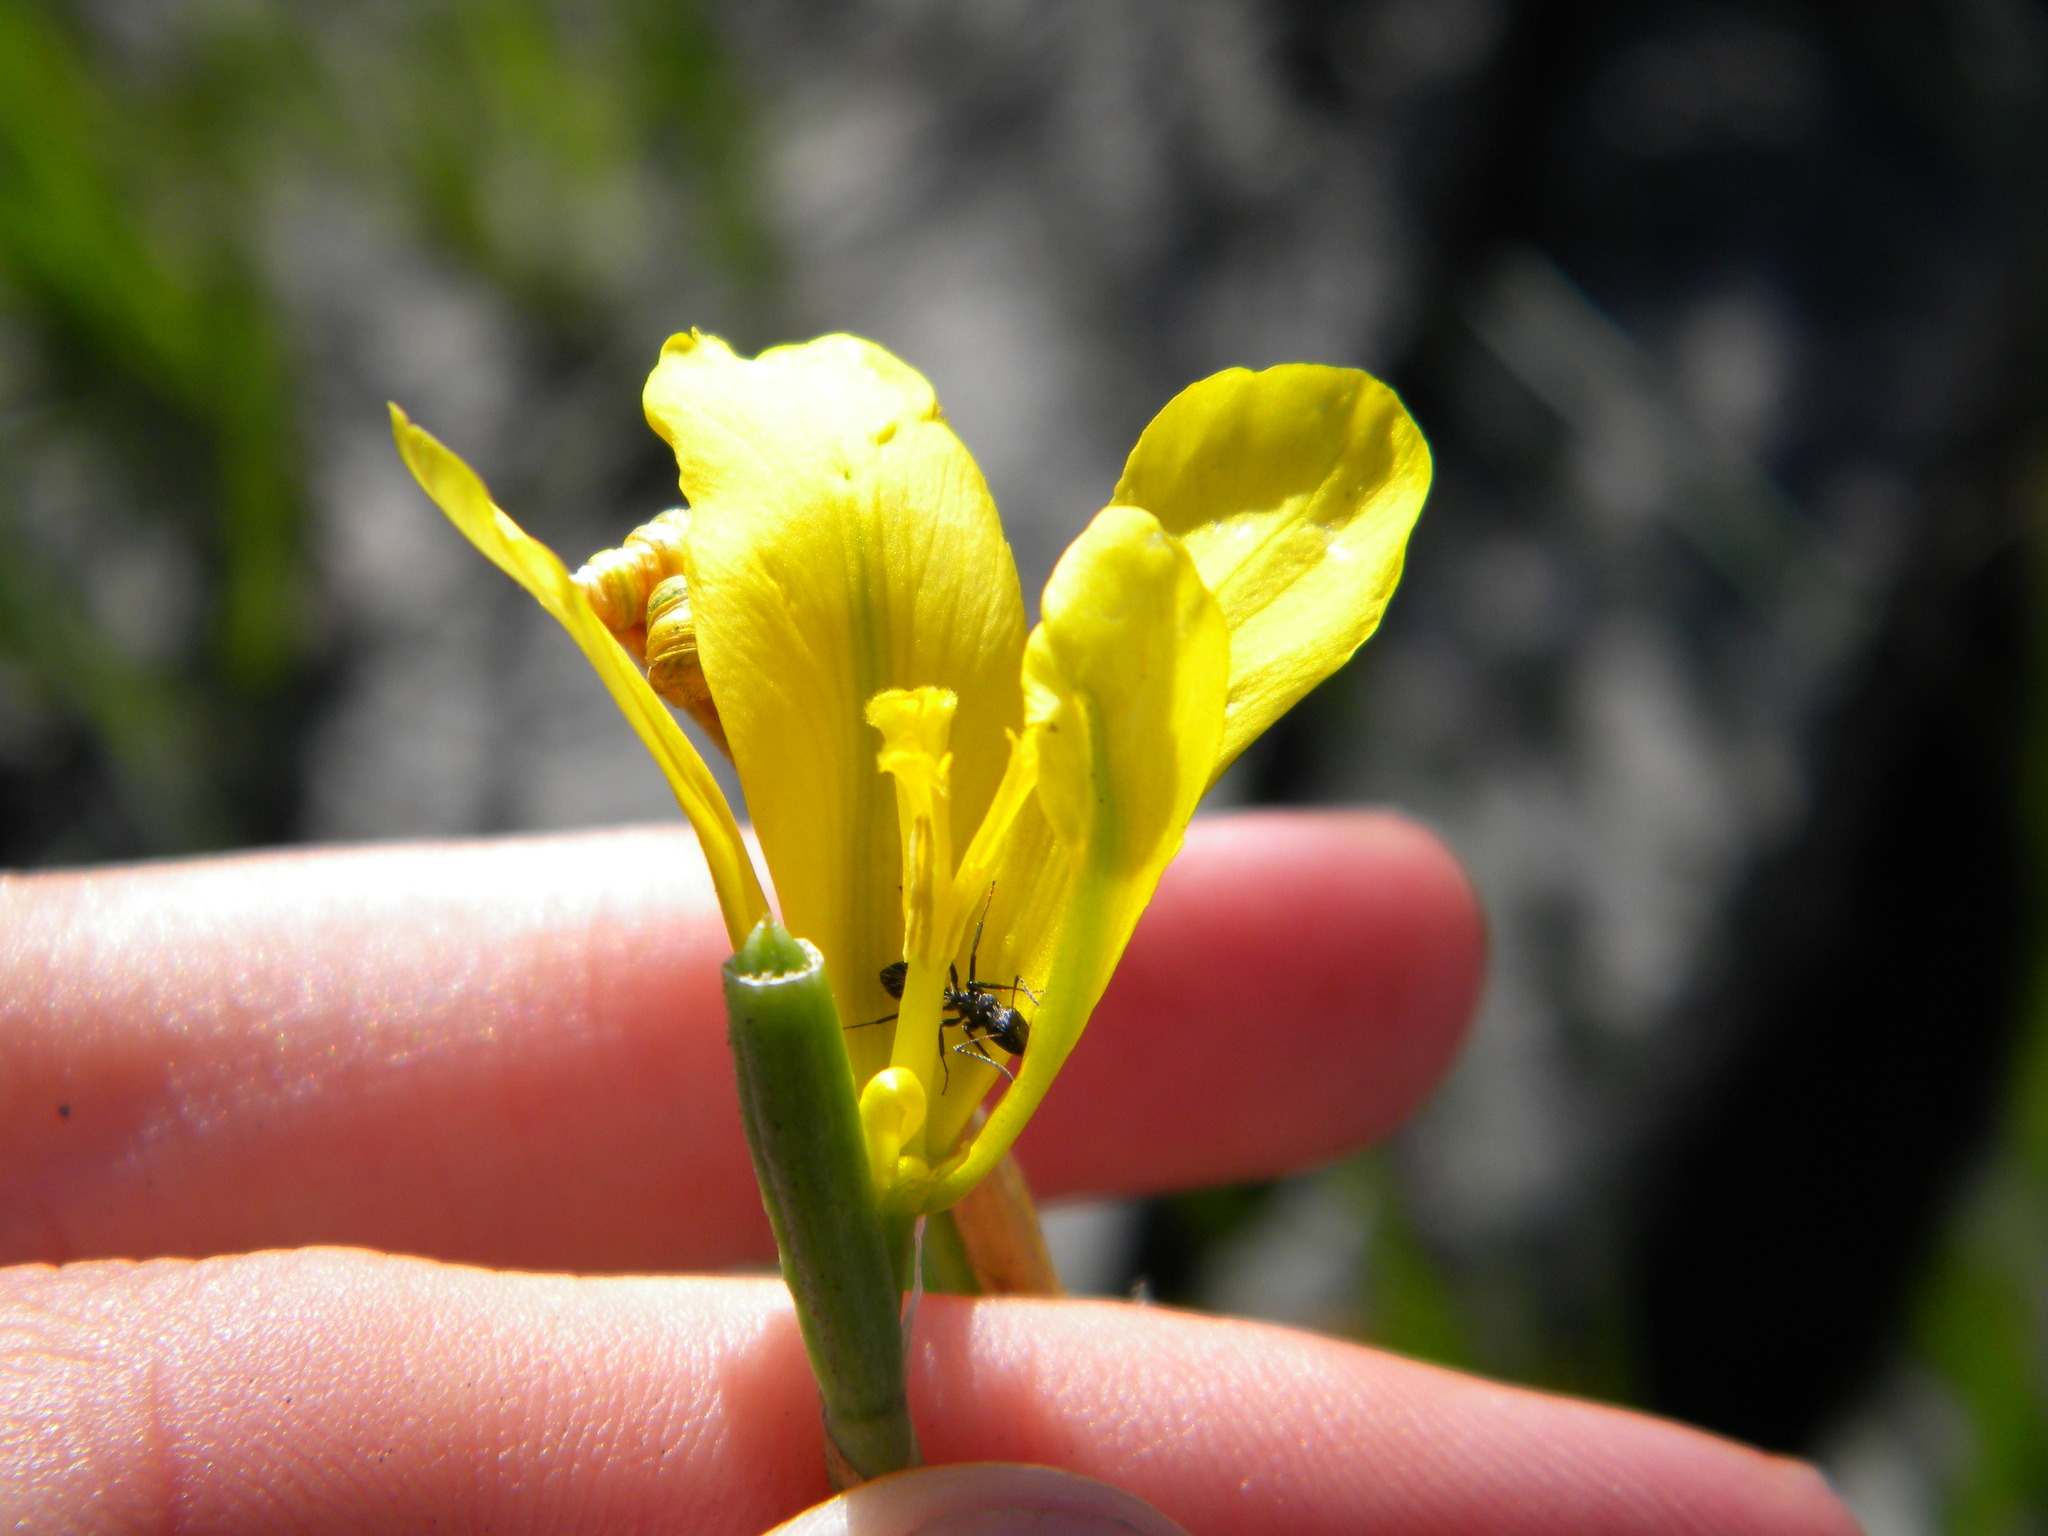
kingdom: Plantae
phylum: Tracheophyta
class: Liliopsida
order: Asparagales
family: Iridaceae
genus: Moraea
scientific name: Moraea ochroleuca
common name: Red tulp
